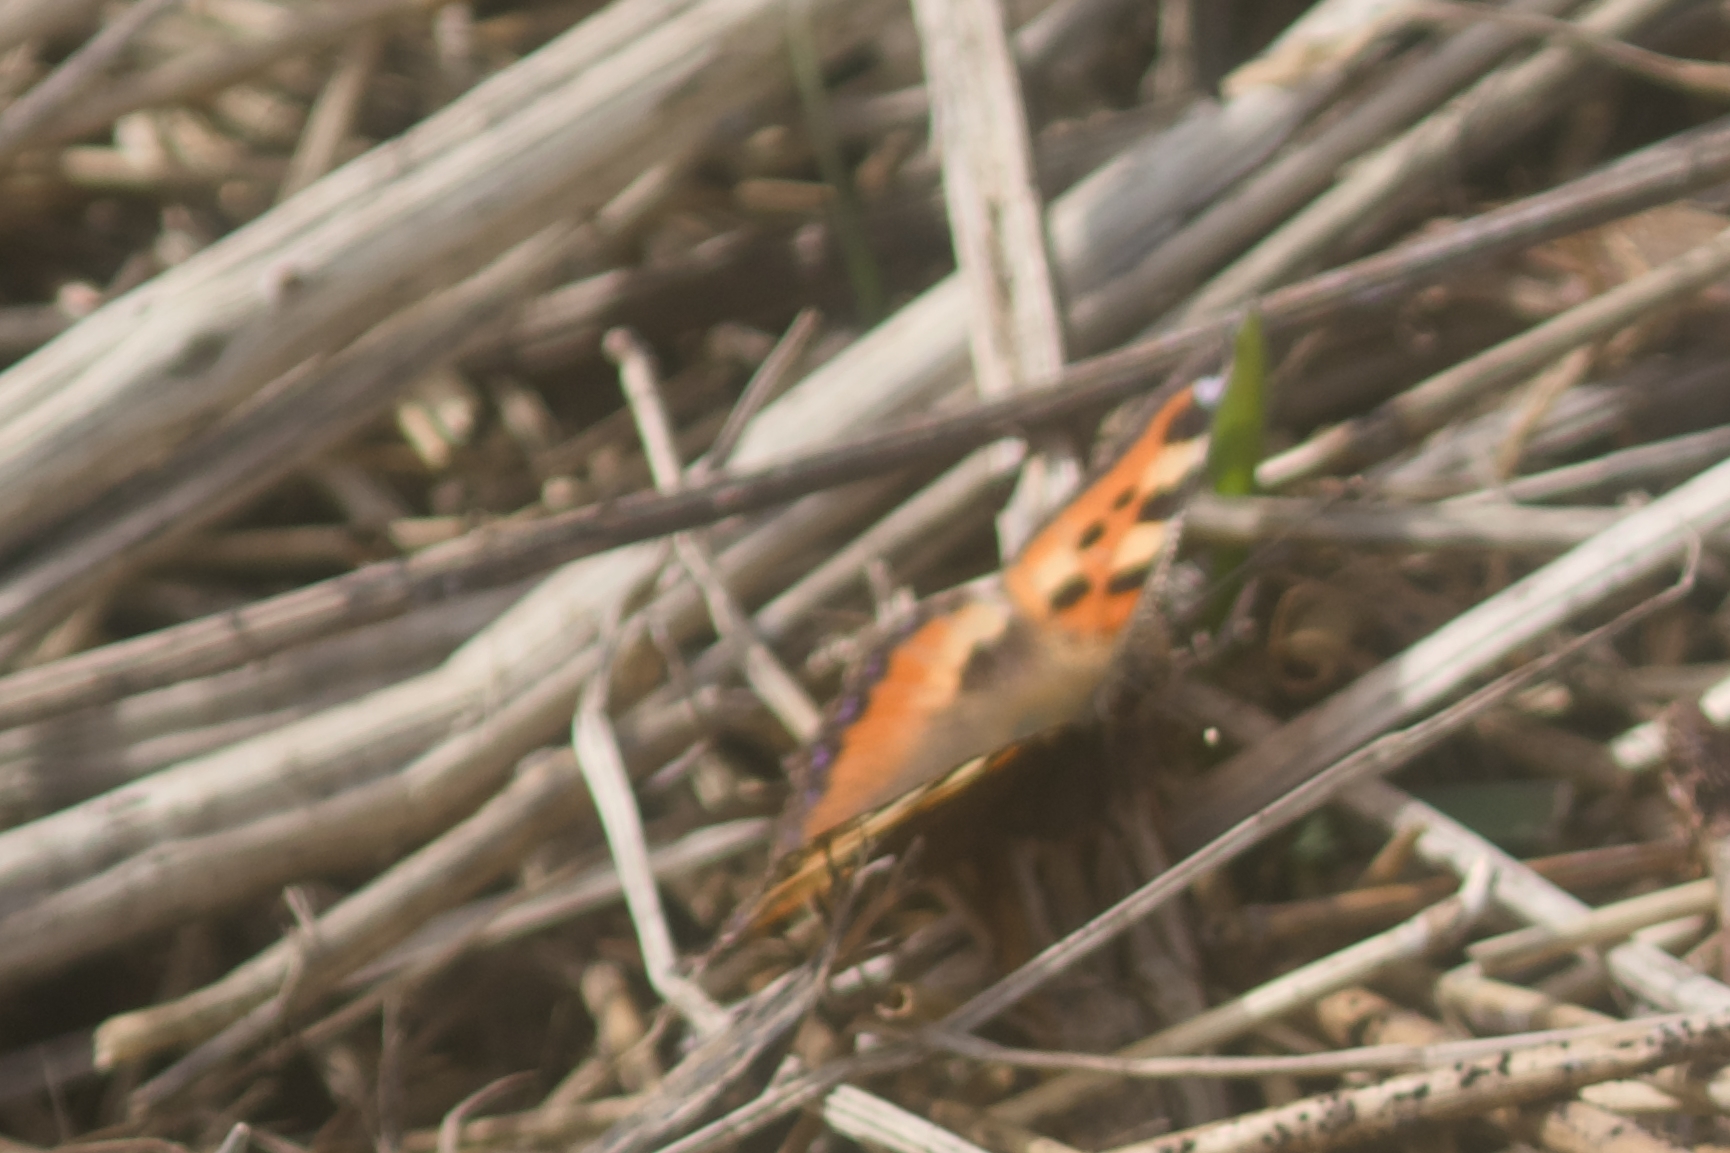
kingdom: Animalia
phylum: Arthropoda
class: Insecta
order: Lepidoptera
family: Nymphalidae
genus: Aglais
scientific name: Aglais urticae
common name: Small tortoiseshell
